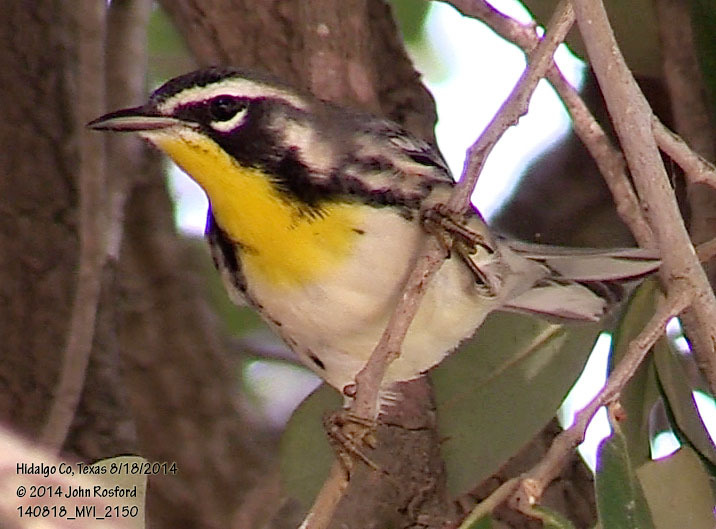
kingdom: Animalia
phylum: Chordata
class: Aves
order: Passeriformes
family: Parulidae
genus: Setophaga
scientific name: Setophaga dominica
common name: Yellow-throated warbler
